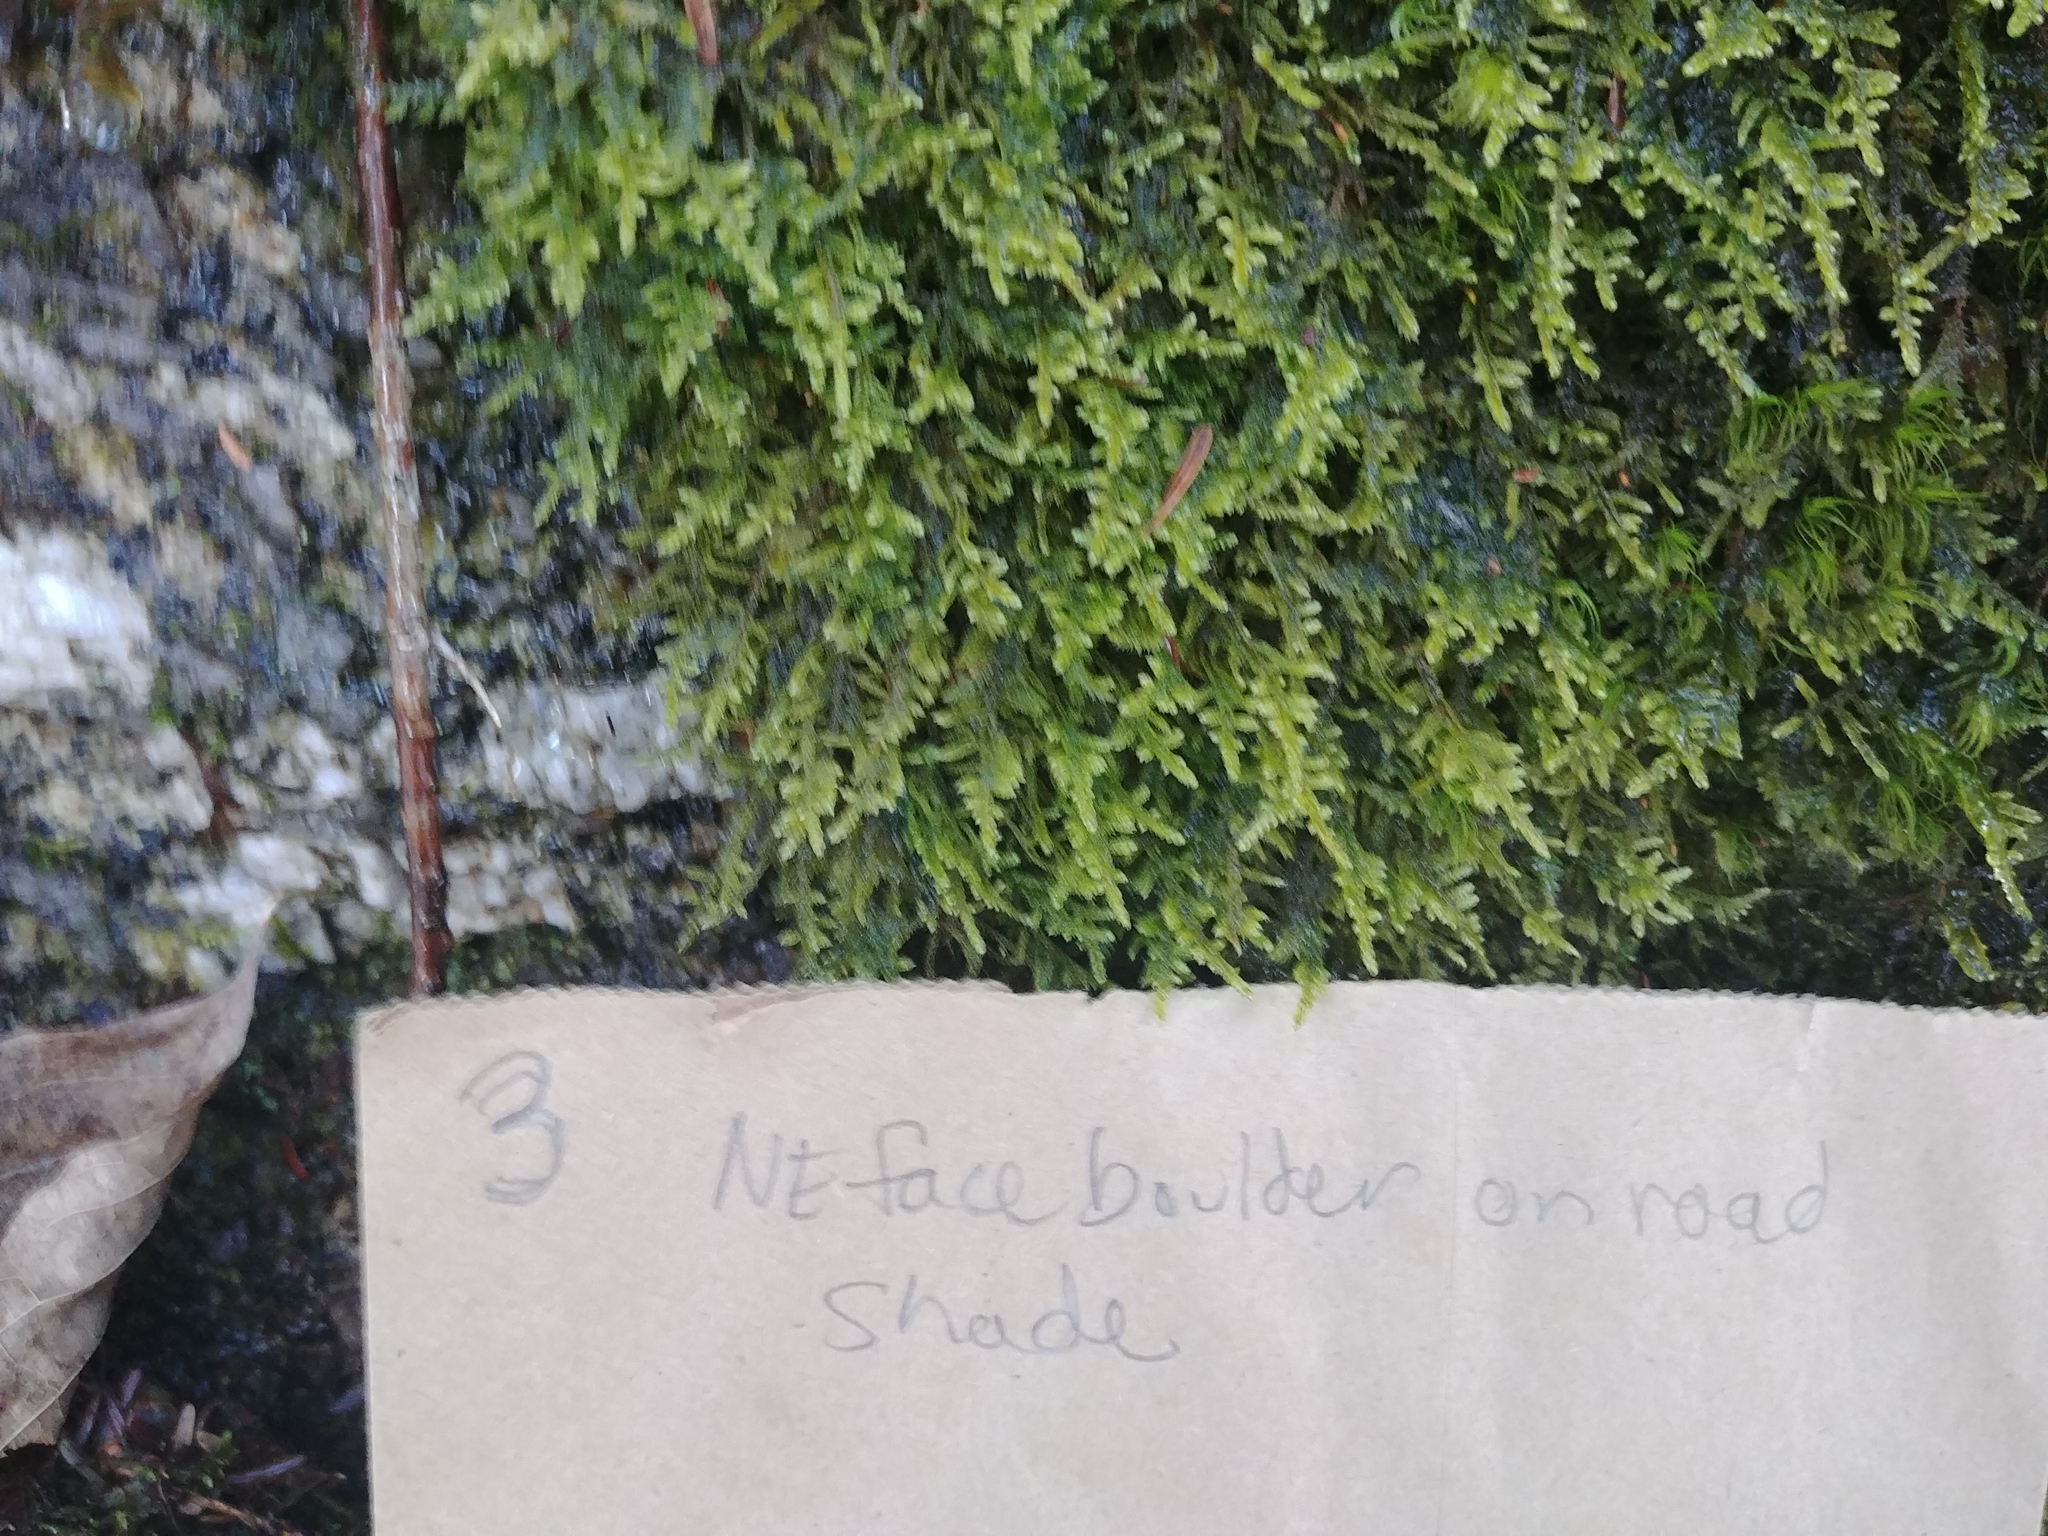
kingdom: Plantae
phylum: Bryophyta
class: Bryopsida
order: Hypnales
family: Callicladiaceae
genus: Callicladium
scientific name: Callicladium imponens
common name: Brocade moss
